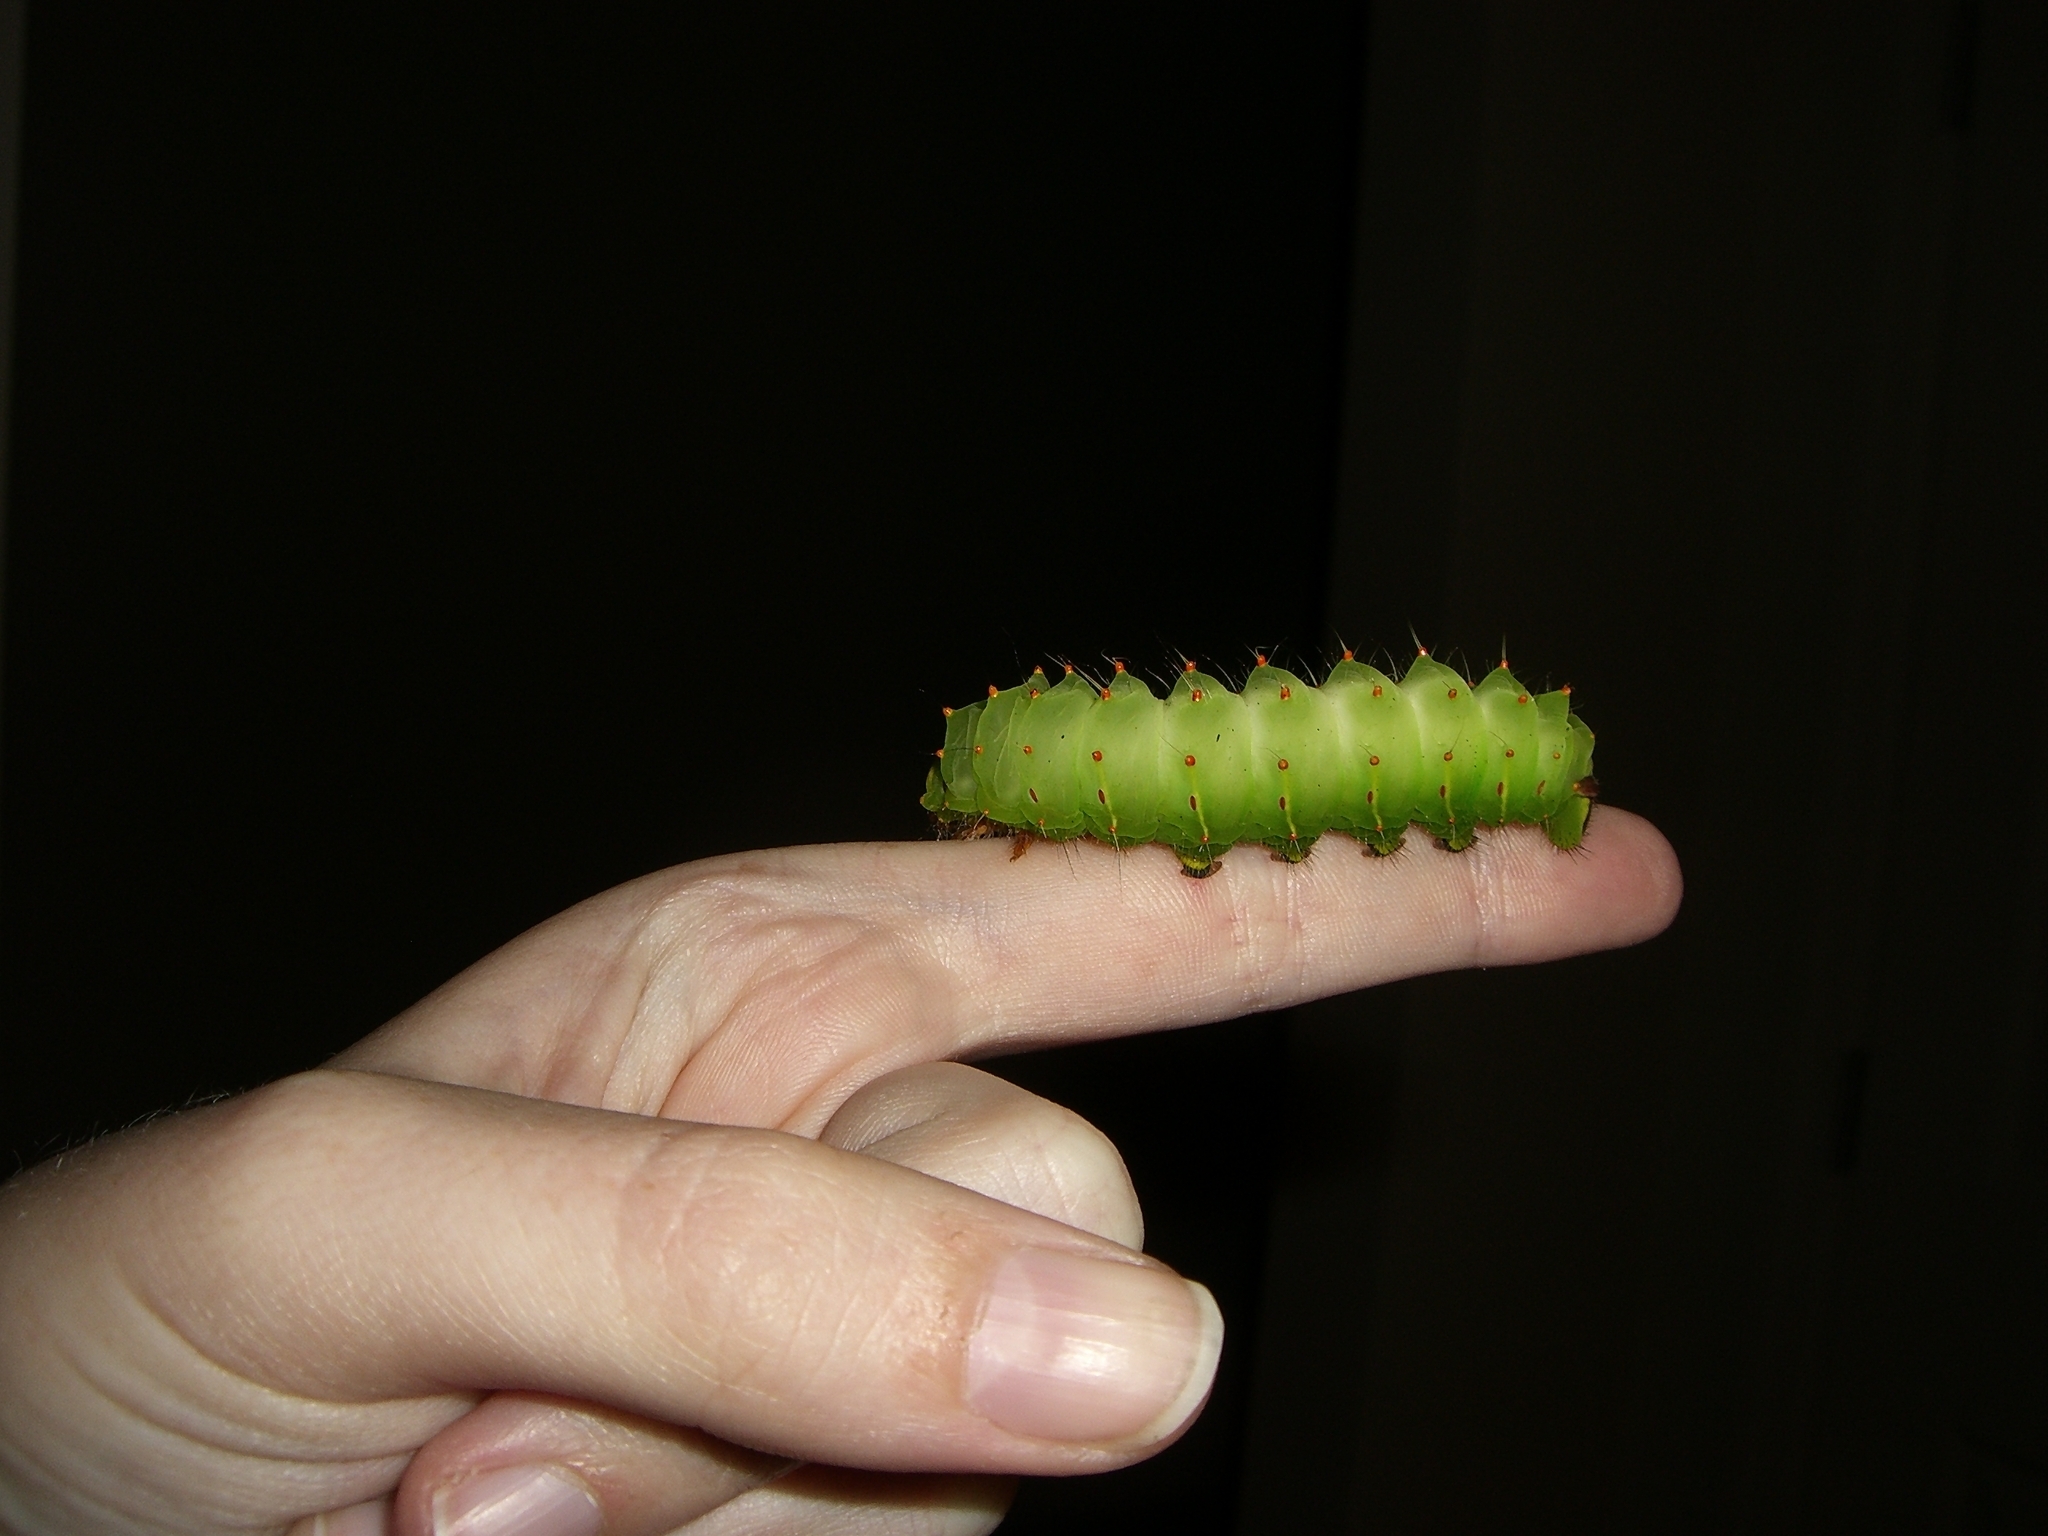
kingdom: Animalia
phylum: Arthropoda
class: Insecta
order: Lepidoptera
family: Saturniidae
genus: Antheraea
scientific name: Antheraea polyphemus
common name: Polyphemus moth
